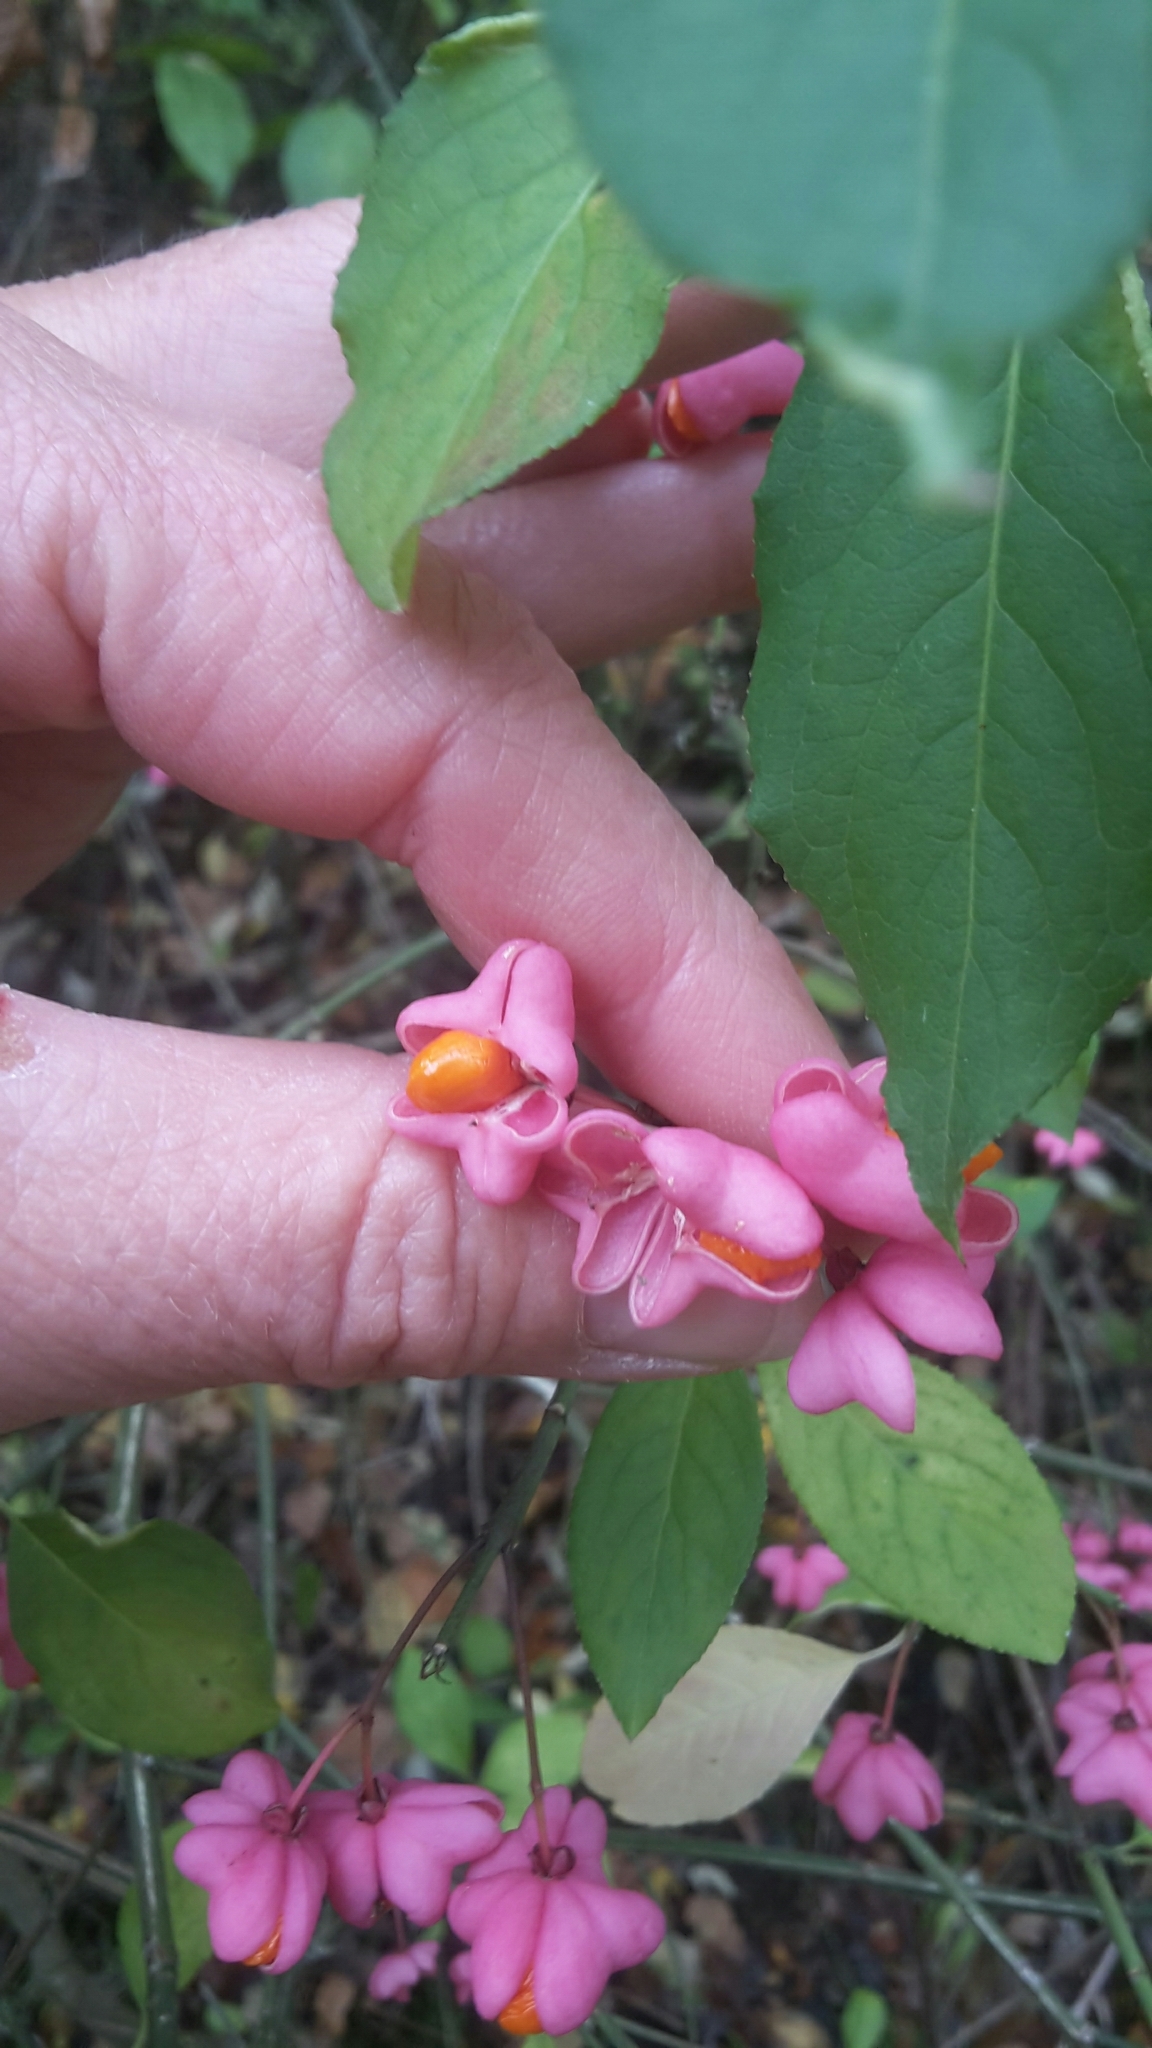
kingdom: Plantae
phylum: Tracheophyta
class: Magnoliopsida
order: Celastrales
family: Celastraceae
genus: Euonymus
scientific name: Euonymus europaeus
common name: Spindle
